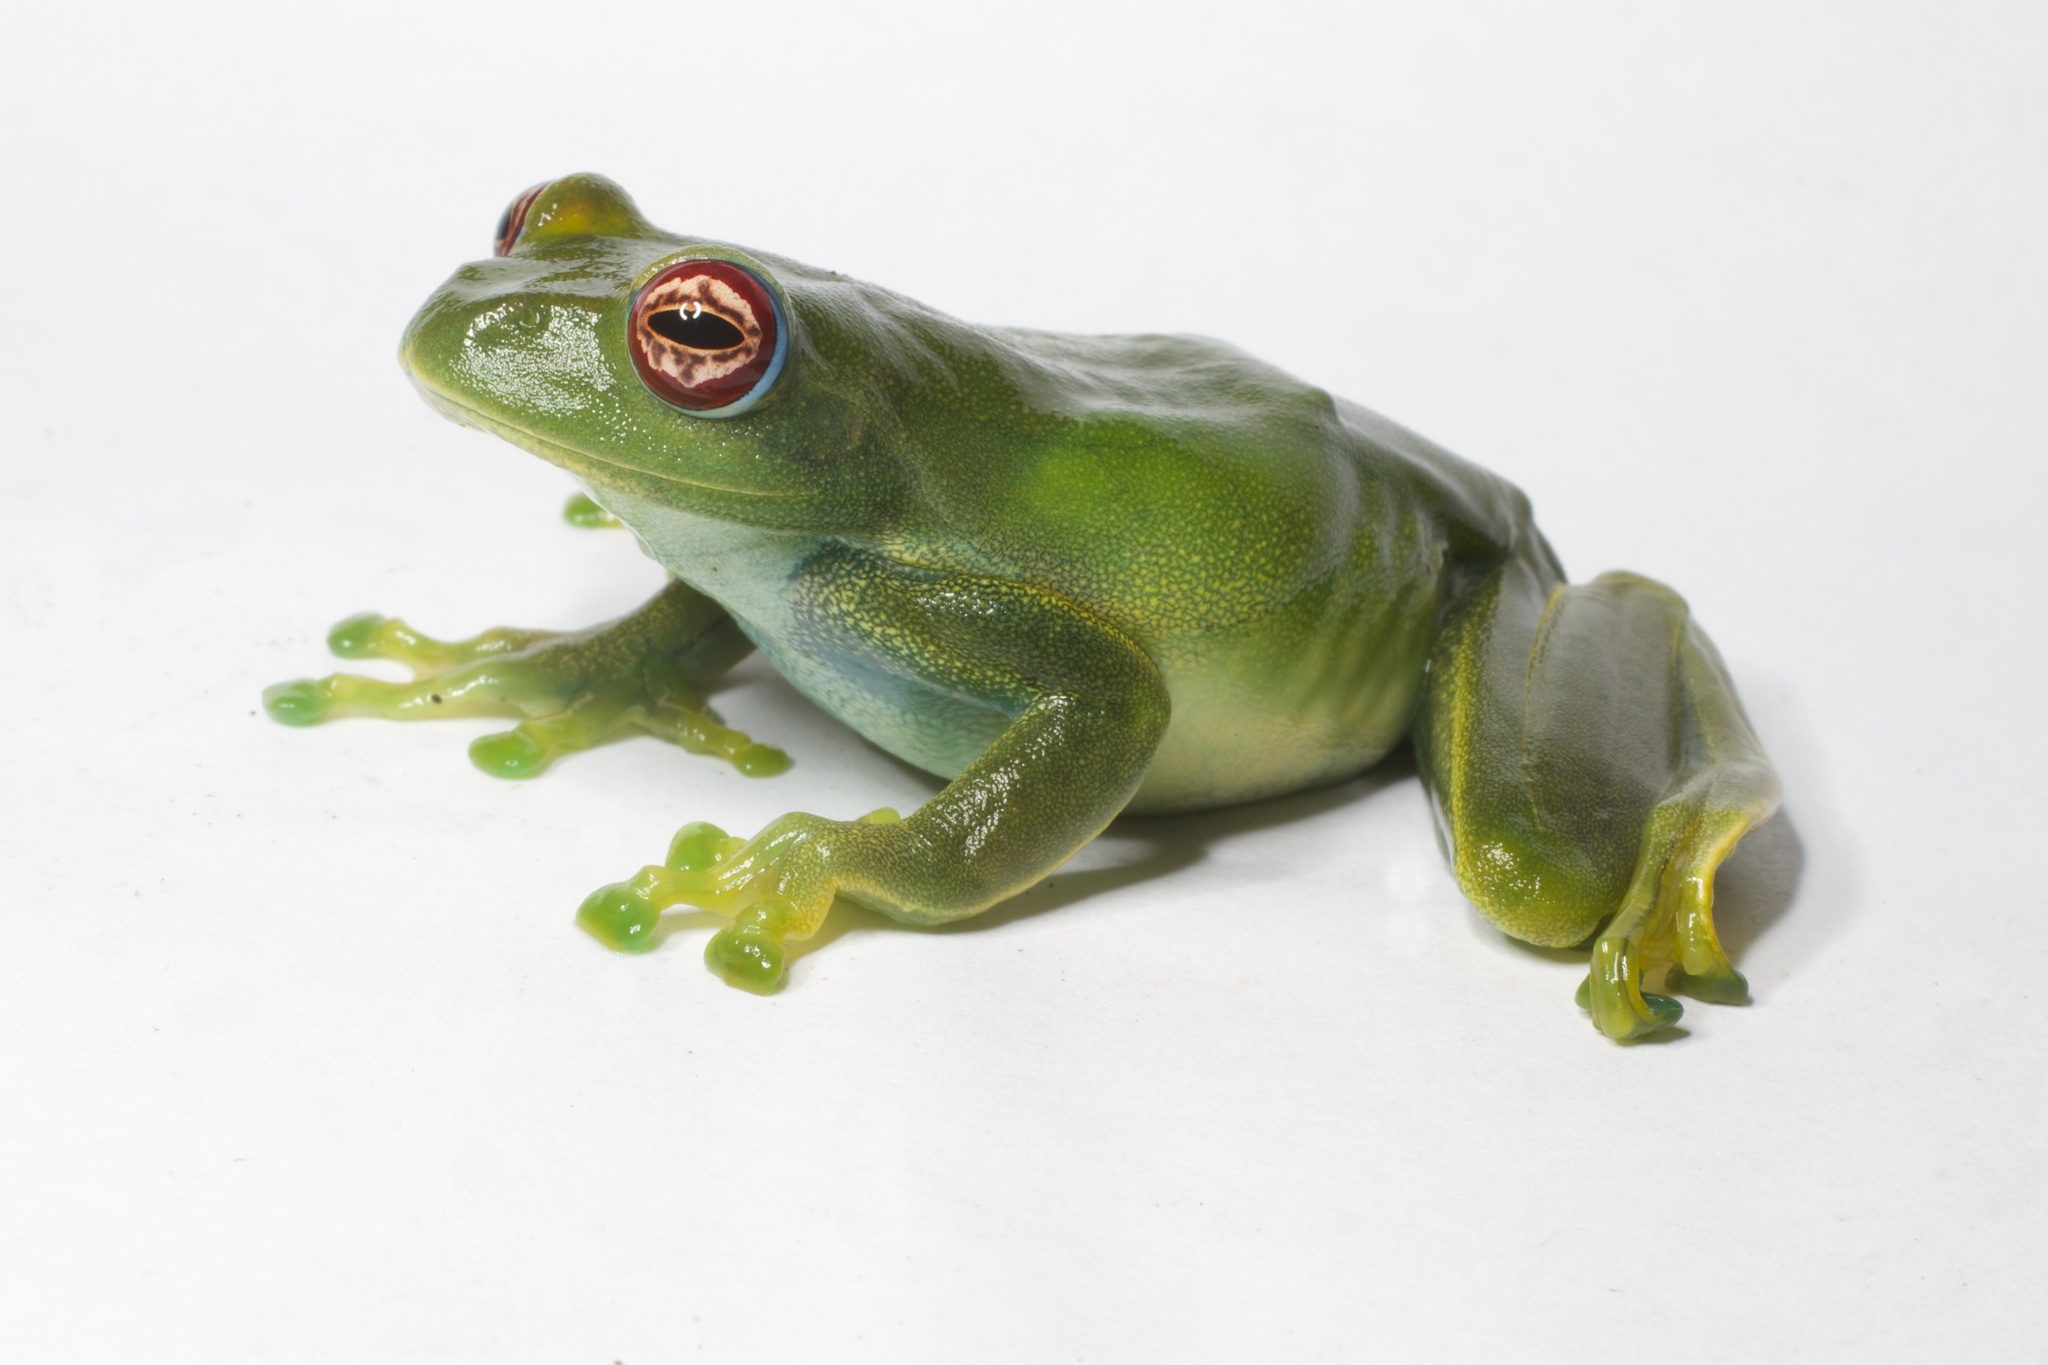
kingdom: Animalia
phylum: Chordata
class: Amphibia
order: Anura
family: Mantellidae
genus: Boophis
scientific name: Boophis luteus
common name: Ankafana bright-eyed frog
